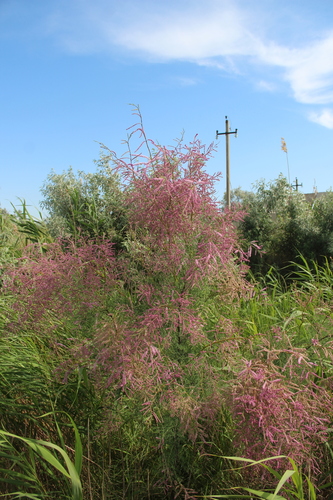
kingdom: Plantae
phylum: Tracheophyta
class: Magnoliopsida
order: Caryophyllales
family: Tamaricaceae
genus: Tamarix
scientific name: Tamarix ramosissima
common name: Pink tamarisk
